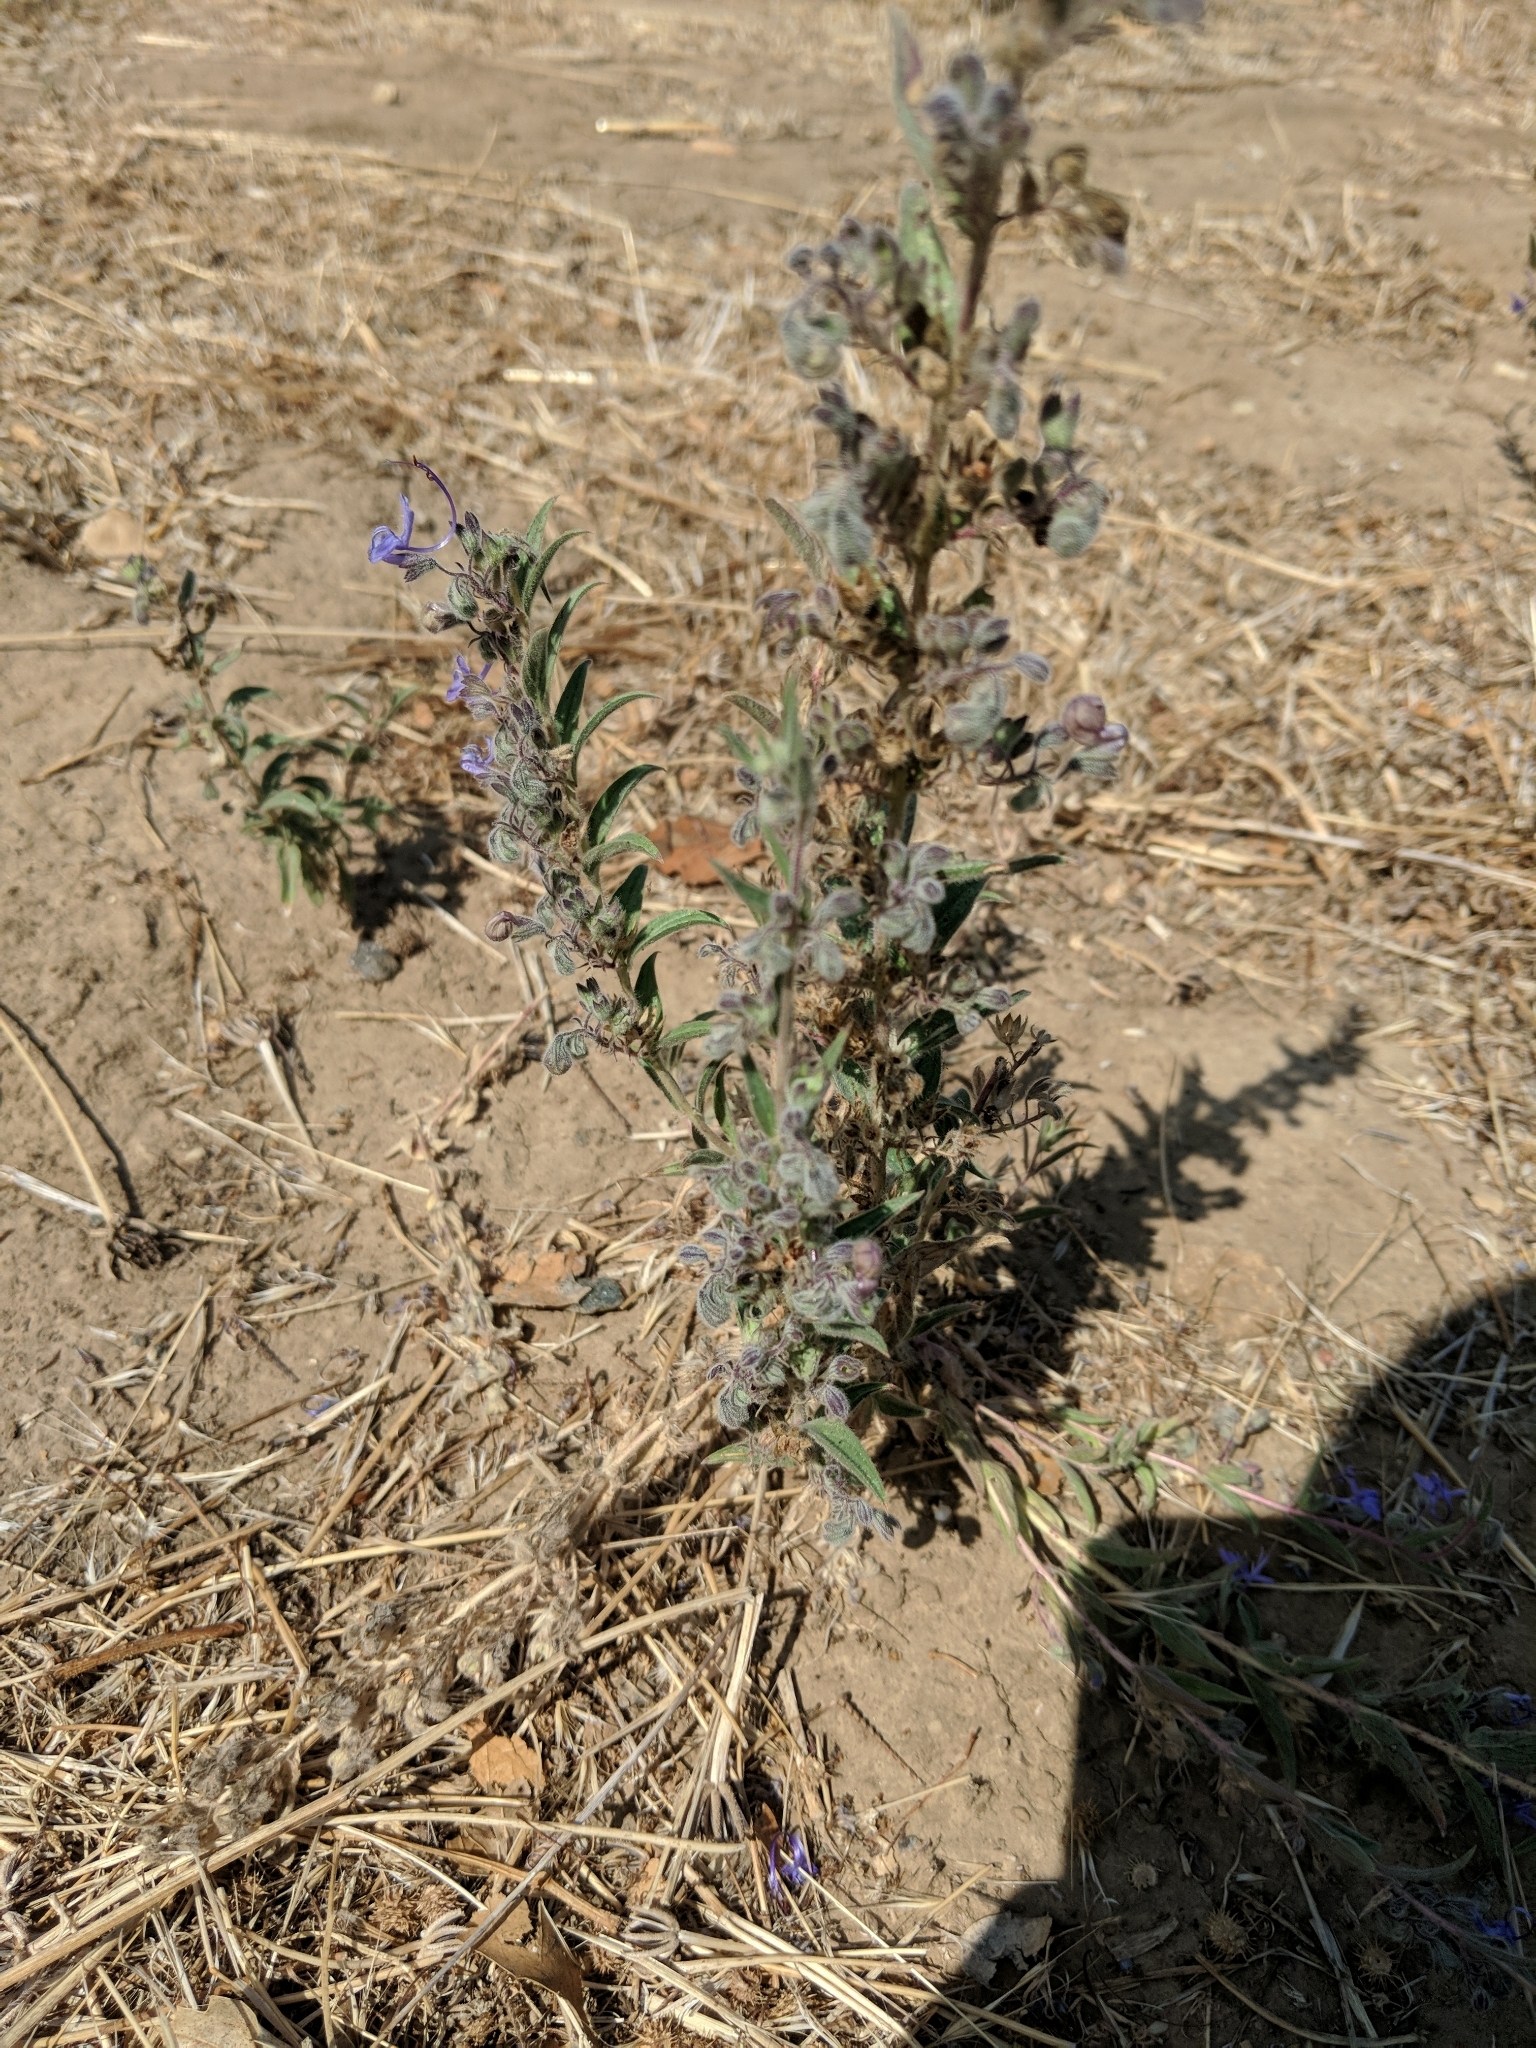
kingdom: Plantae
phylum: Tracheophyta
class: Magnoliopsida
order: Lamiales
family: Lamiaceae
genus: Trichostema
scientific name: Trichostema lanceolatum
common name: Vinegar-weed
